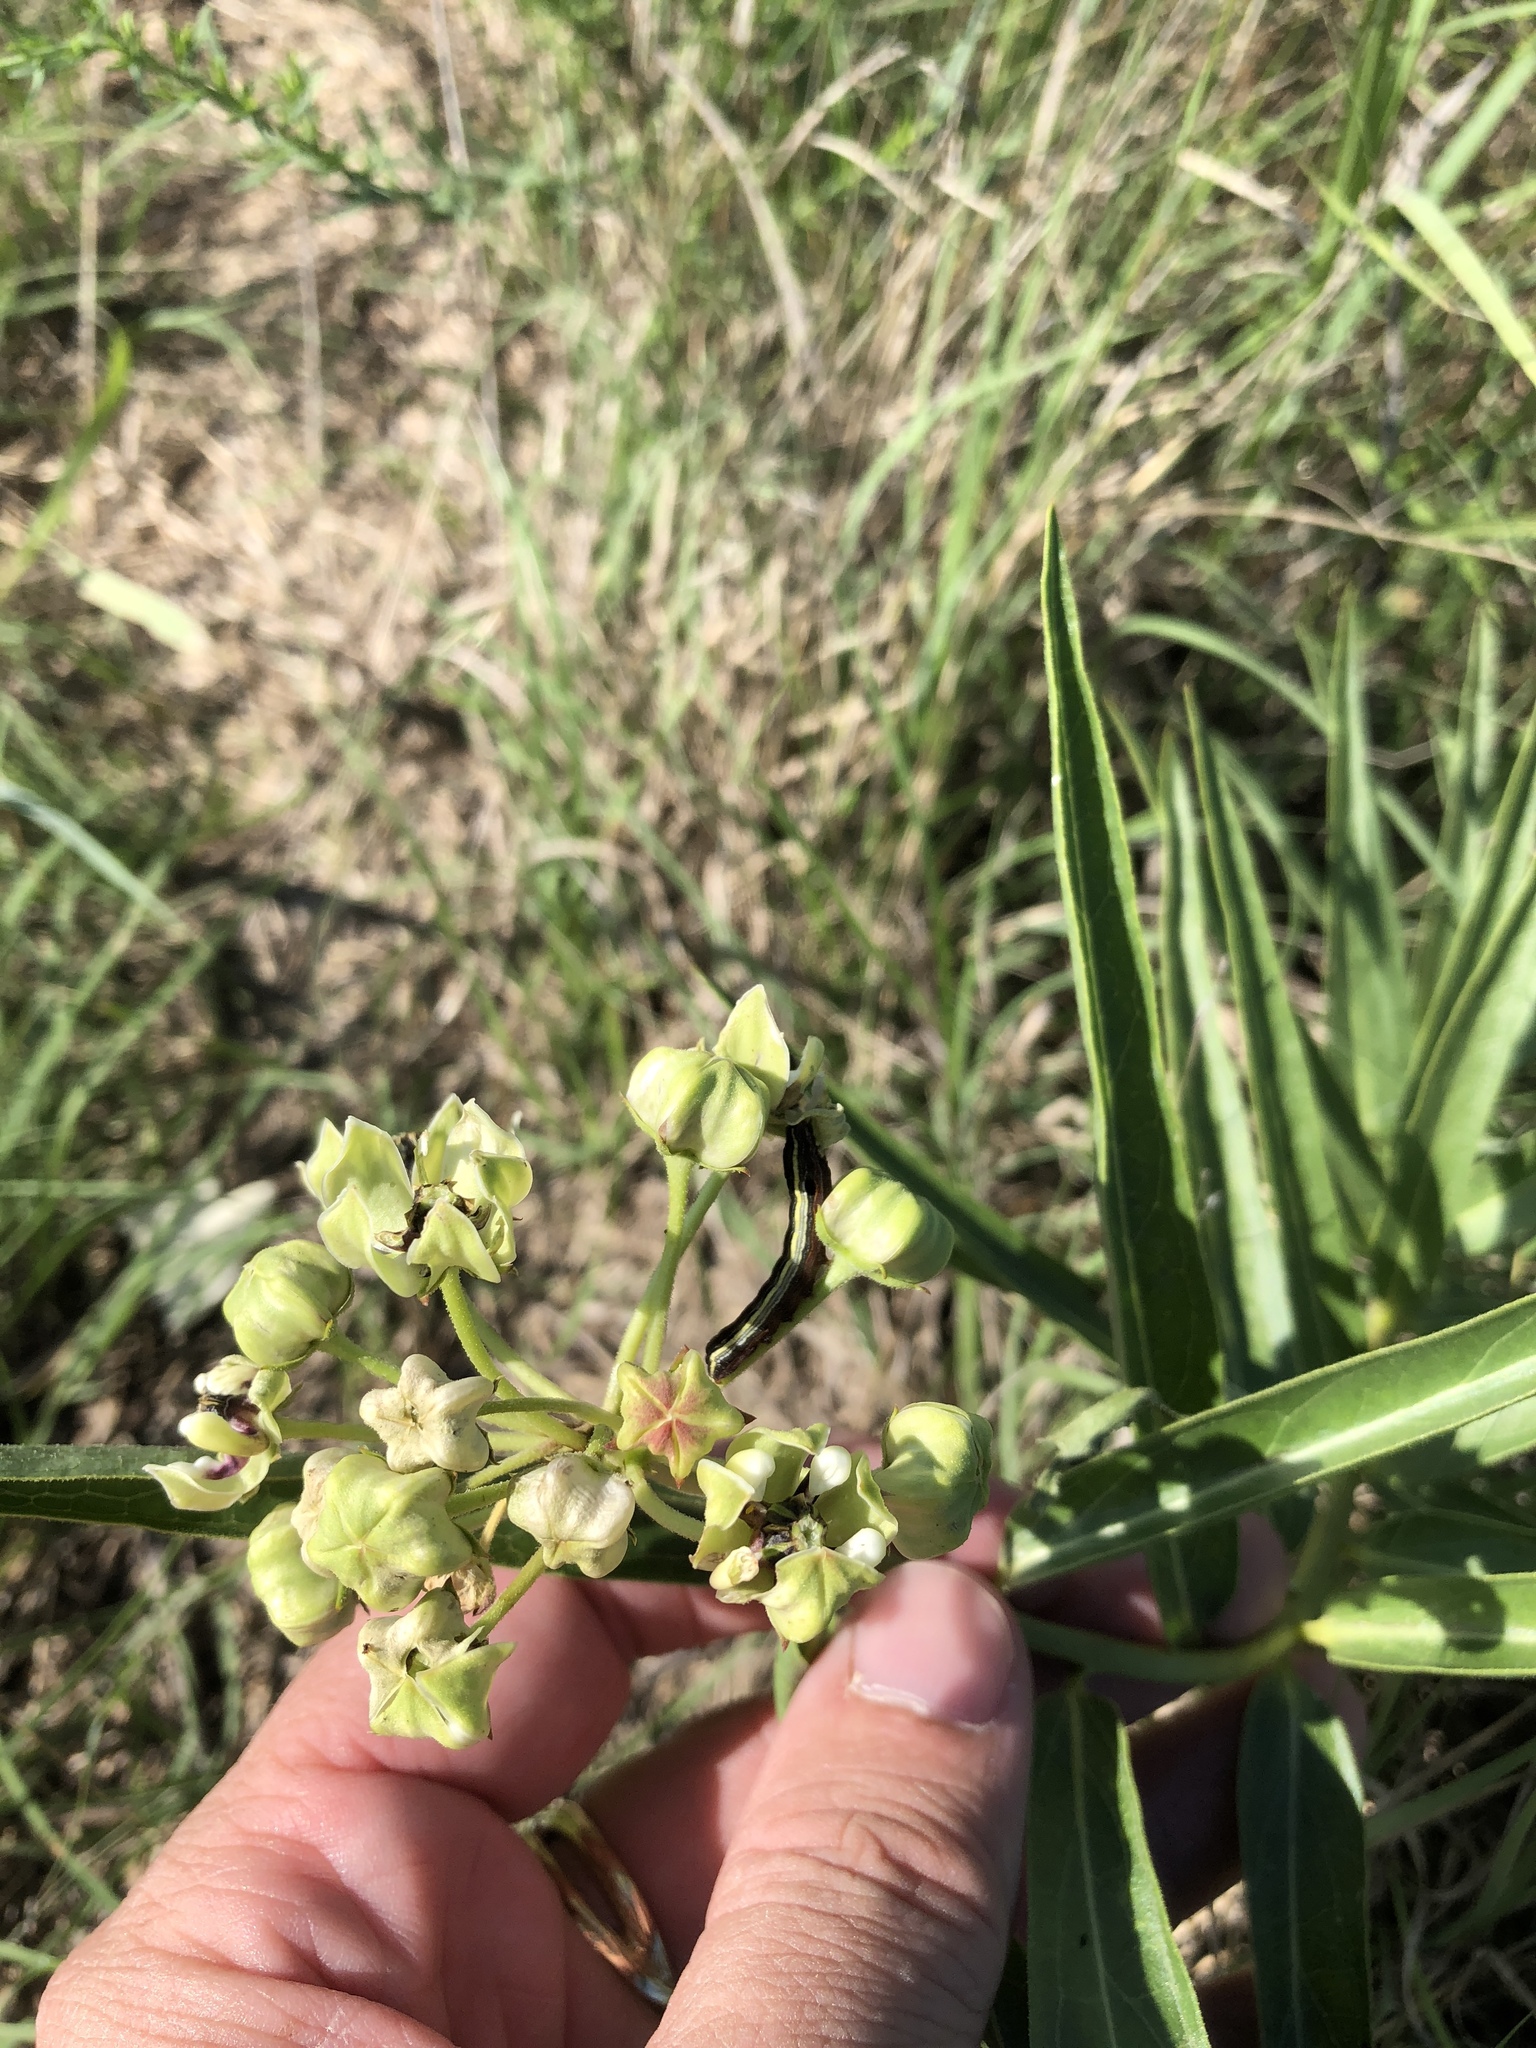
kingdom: Plantae
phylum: Tracheophyta
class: Magnoliopsida
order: Gentianales
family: Apocynaceae
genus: Asclepias
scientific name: Asclepias asperula
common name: Antelope horns
